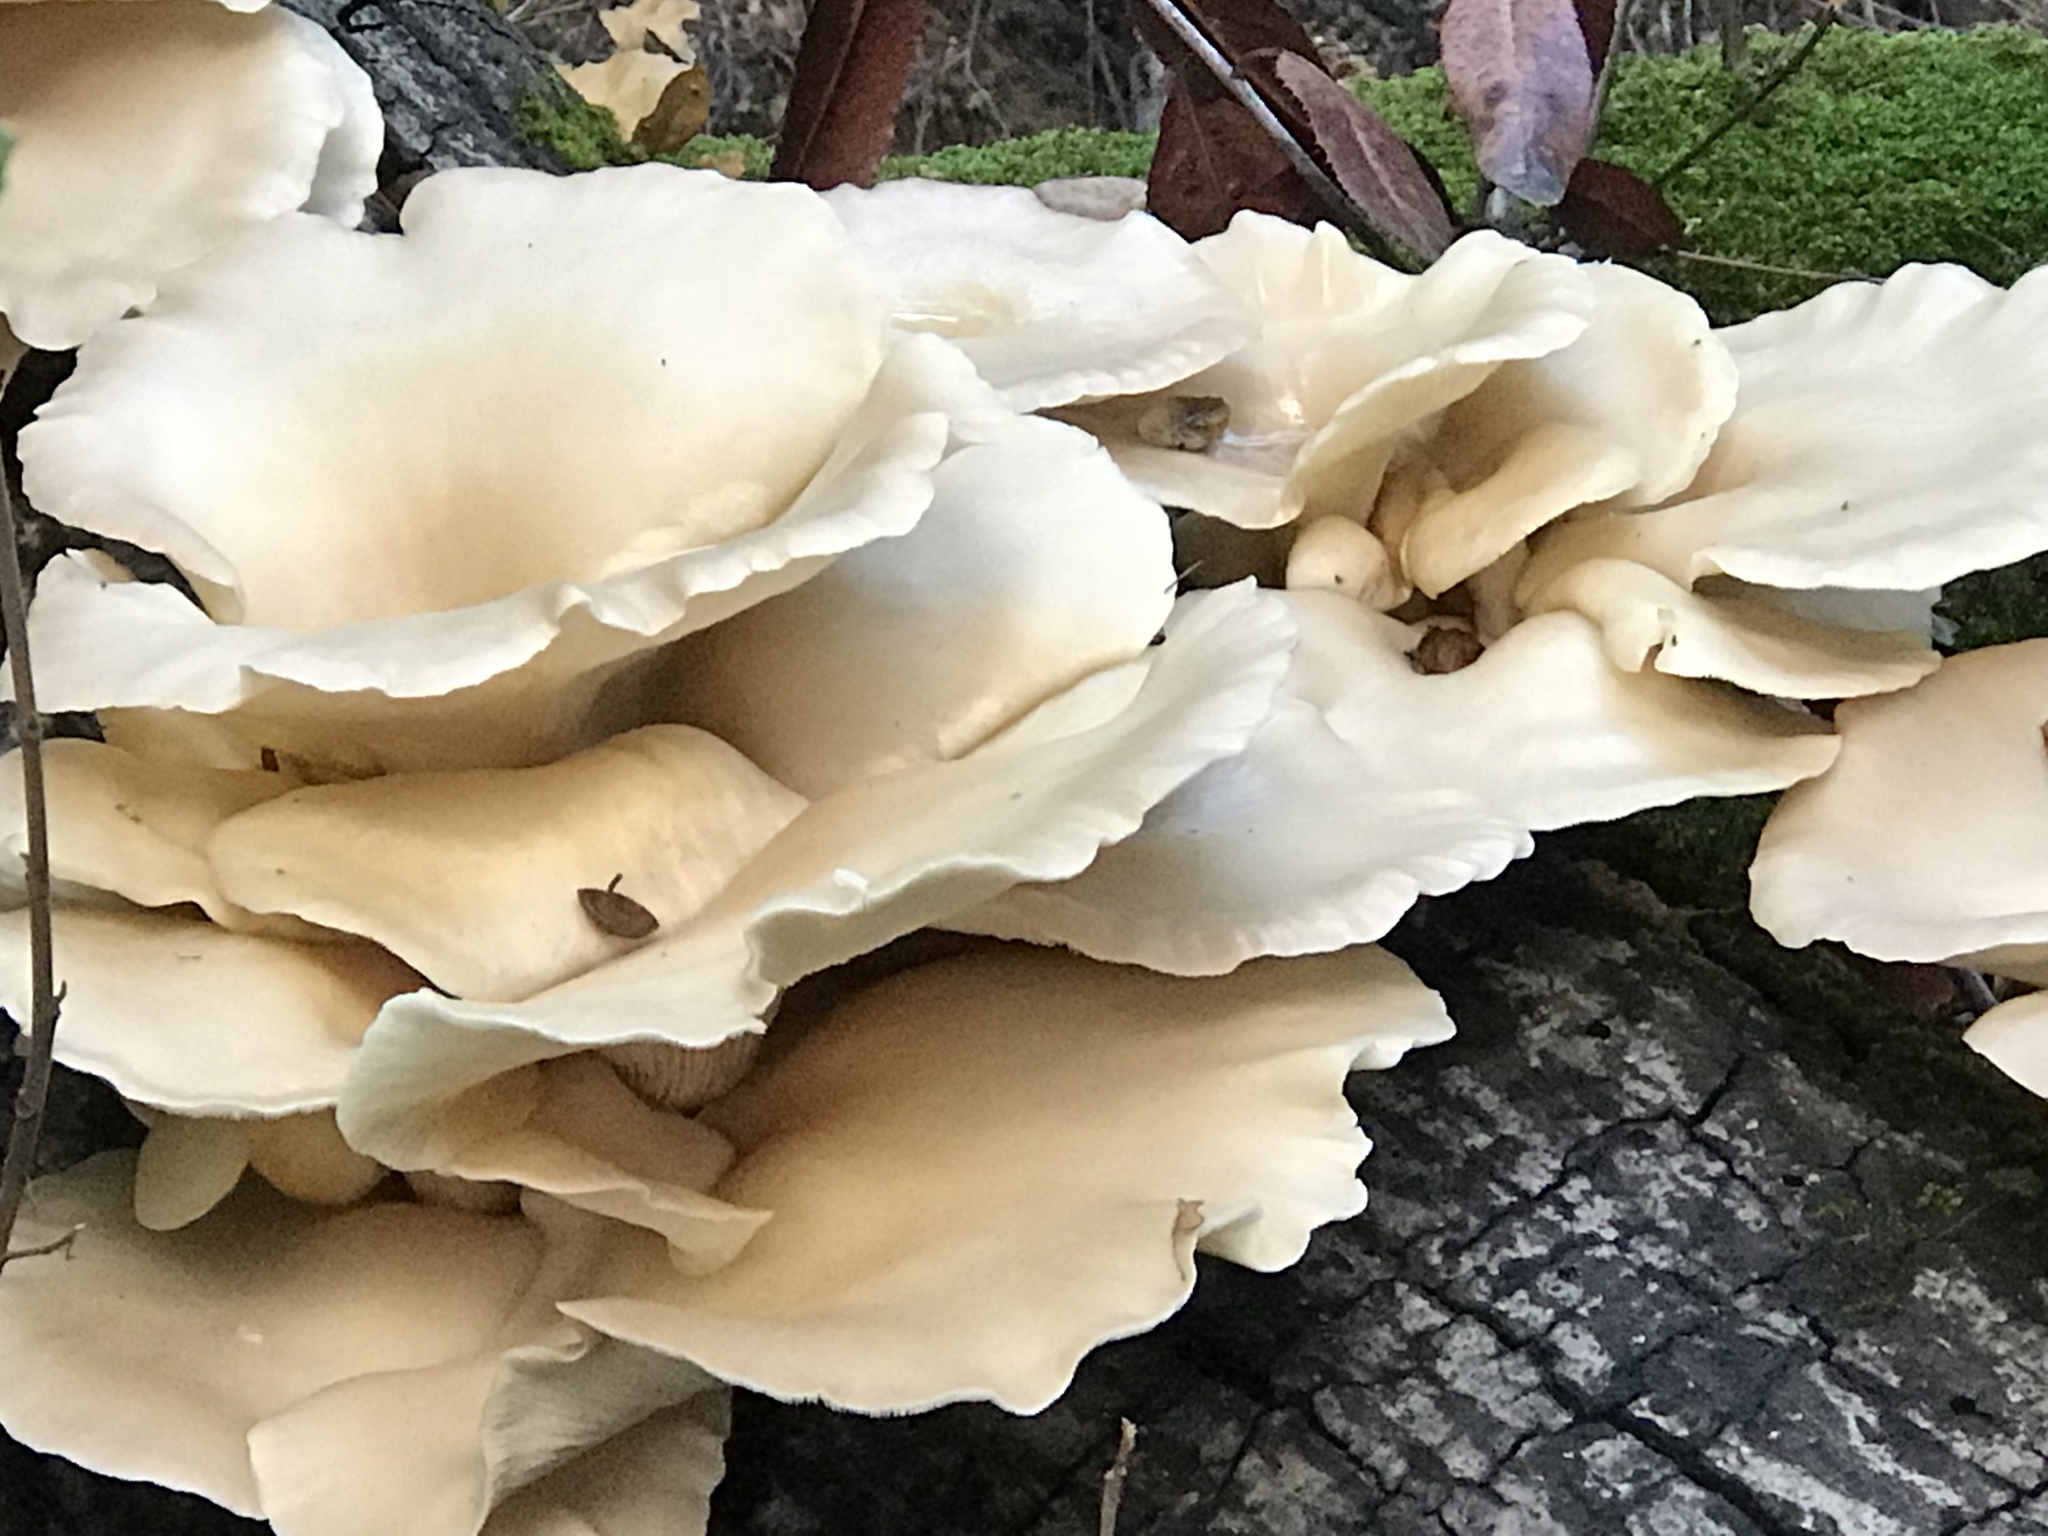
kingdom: Fungi
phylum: Basidiomycota
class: Agaricomycetes
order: Agaricales
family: Pleurotaceae
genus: Pleurotus
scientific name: Pleurotus ostreatus
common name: Oyster mushroom
